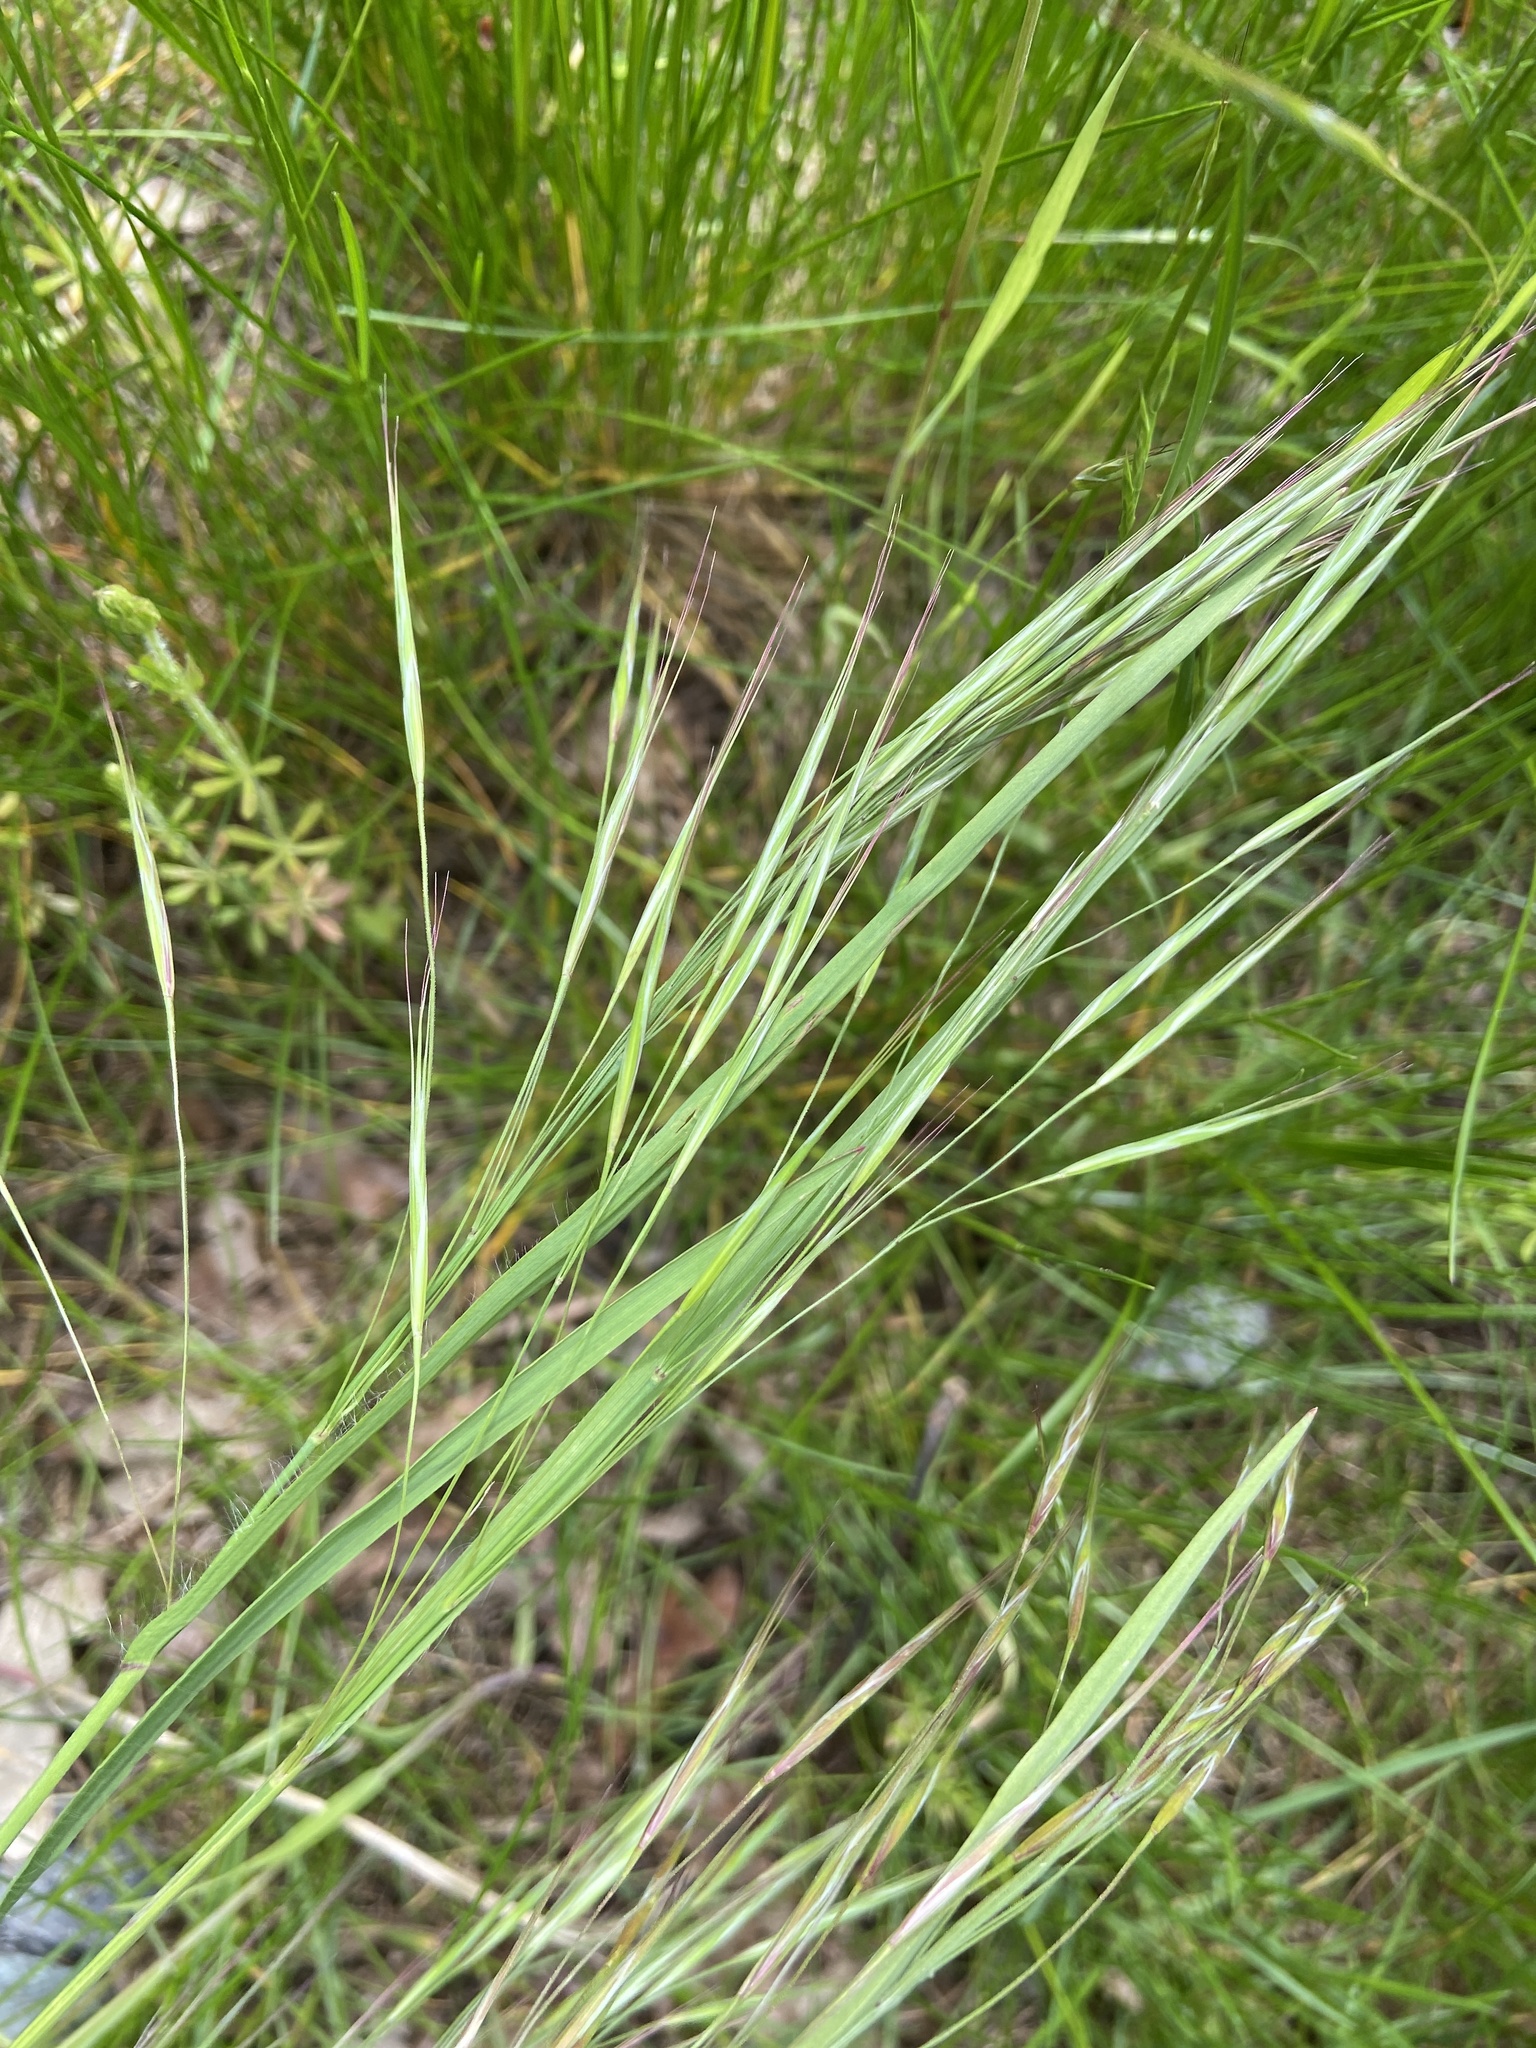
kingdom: Plantae
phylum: Tracheophyta
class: Liliopsida
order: Poales
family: Poaceae
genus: Bromus
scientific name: Bromus sterilis
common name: Poverty brome
